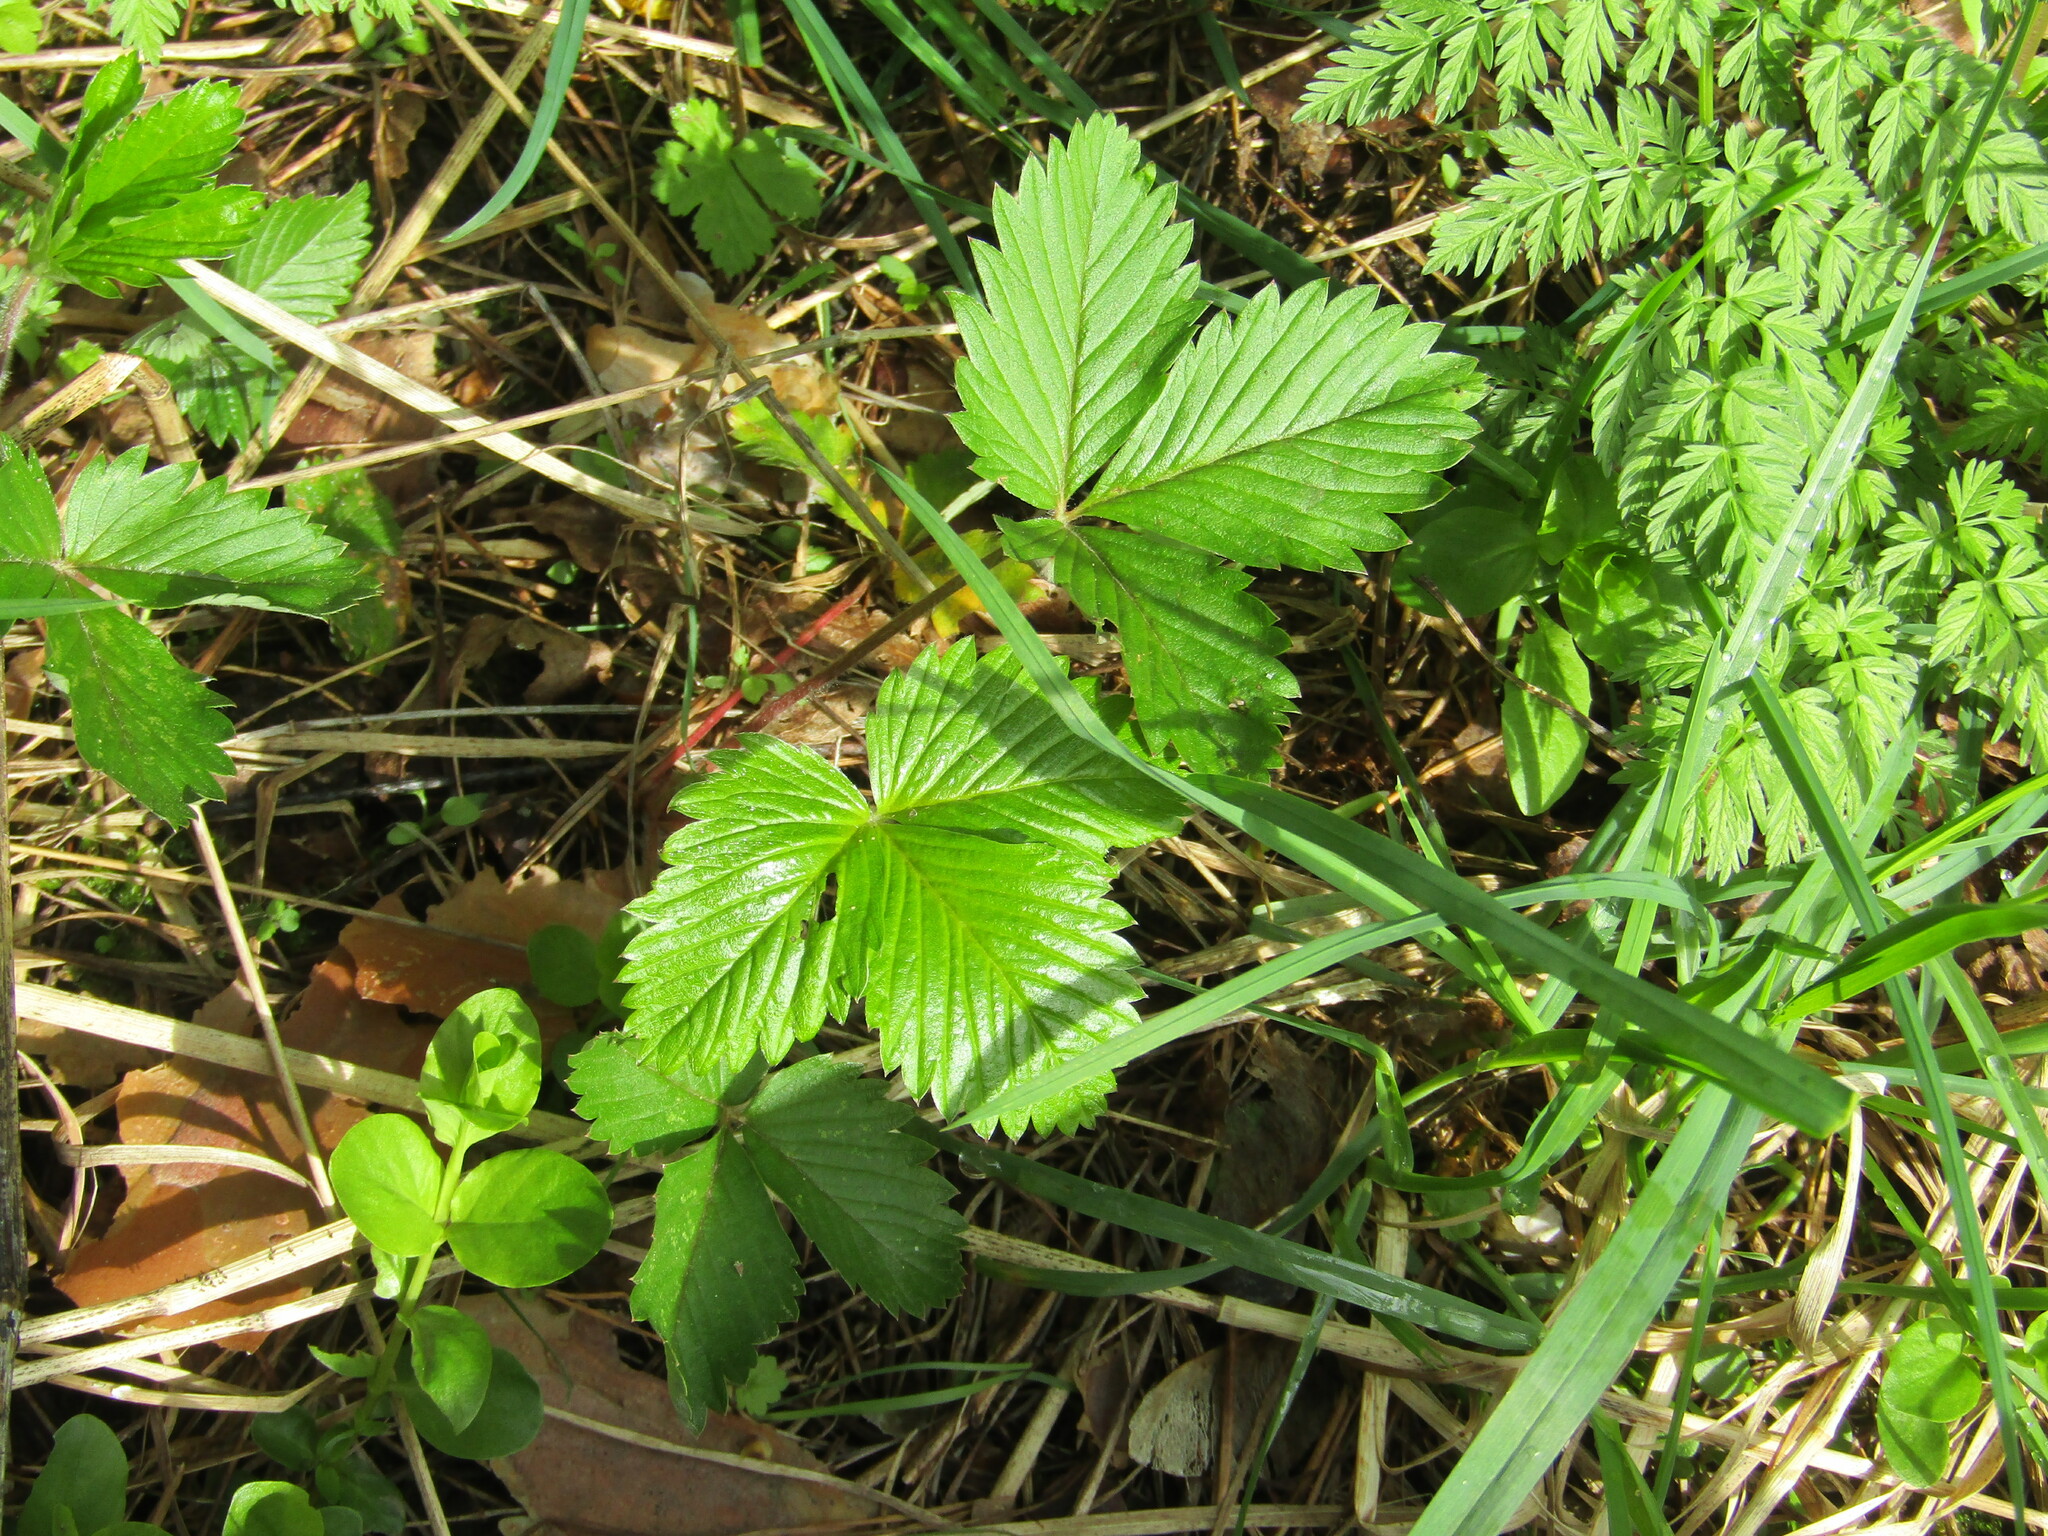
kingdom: Plantae
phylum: Tracheophyta
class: Magnoliopsida
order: Rosales
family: Rosaceae
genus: Fragaria
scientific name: Fragaria vesca
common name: Wild strawberry
